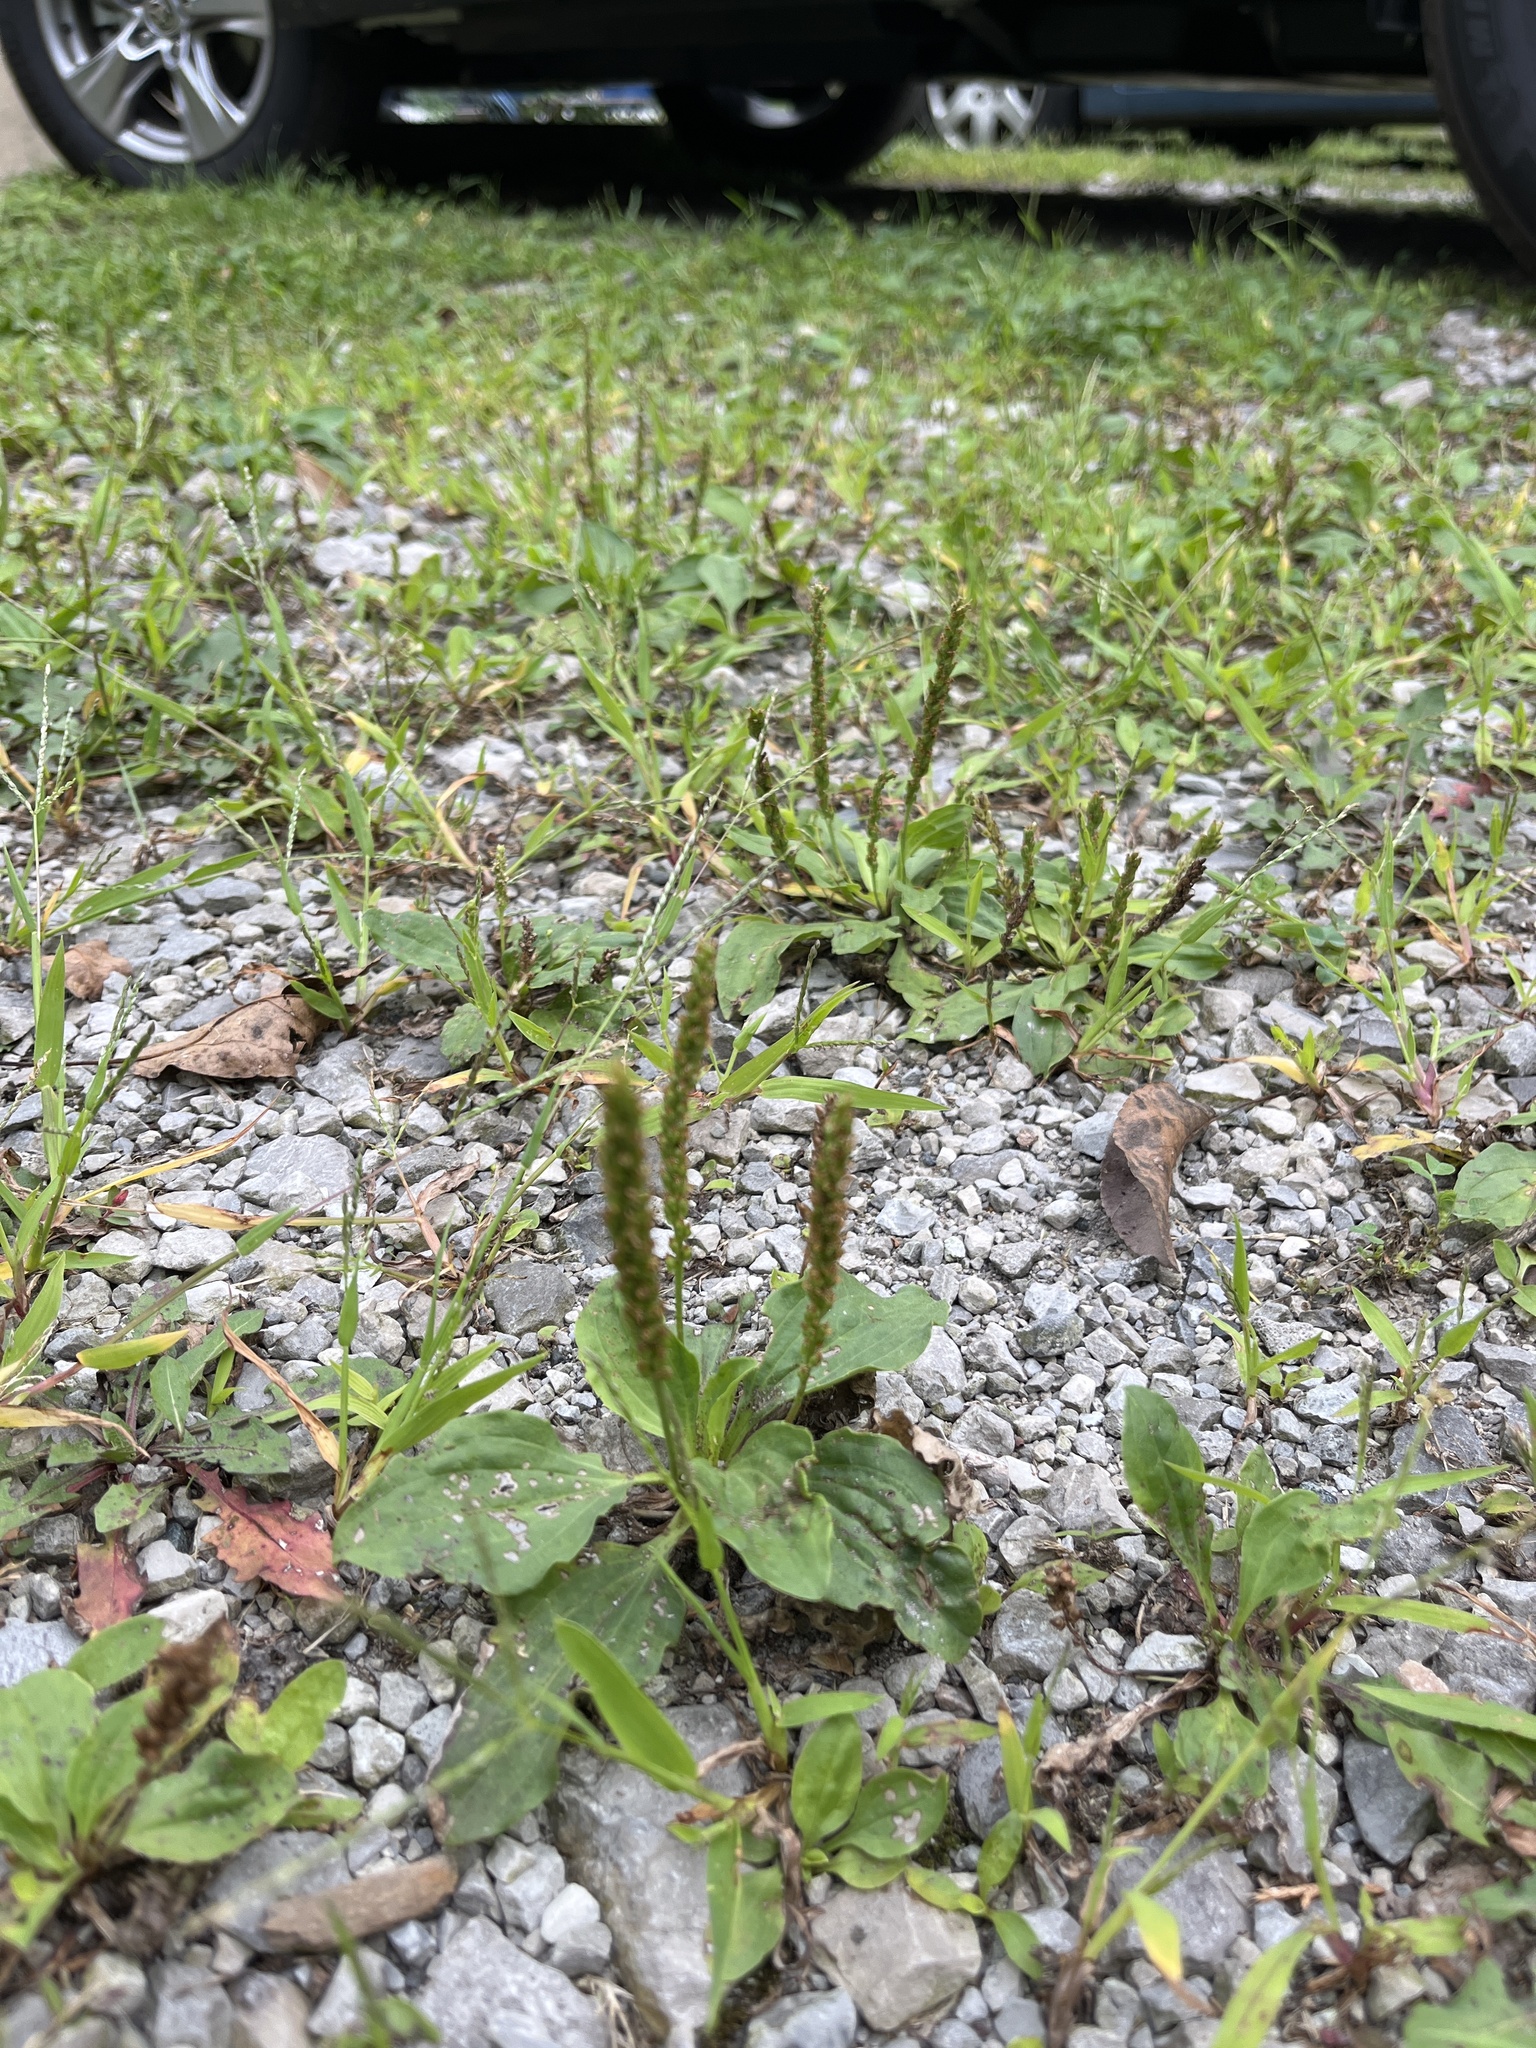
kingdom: Plantae
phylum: Tracheophyta
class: Magnoliopsida
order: Lamiales
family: Plantaginaceae
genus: Plantago
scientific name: Plantago major
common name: Common plantain
